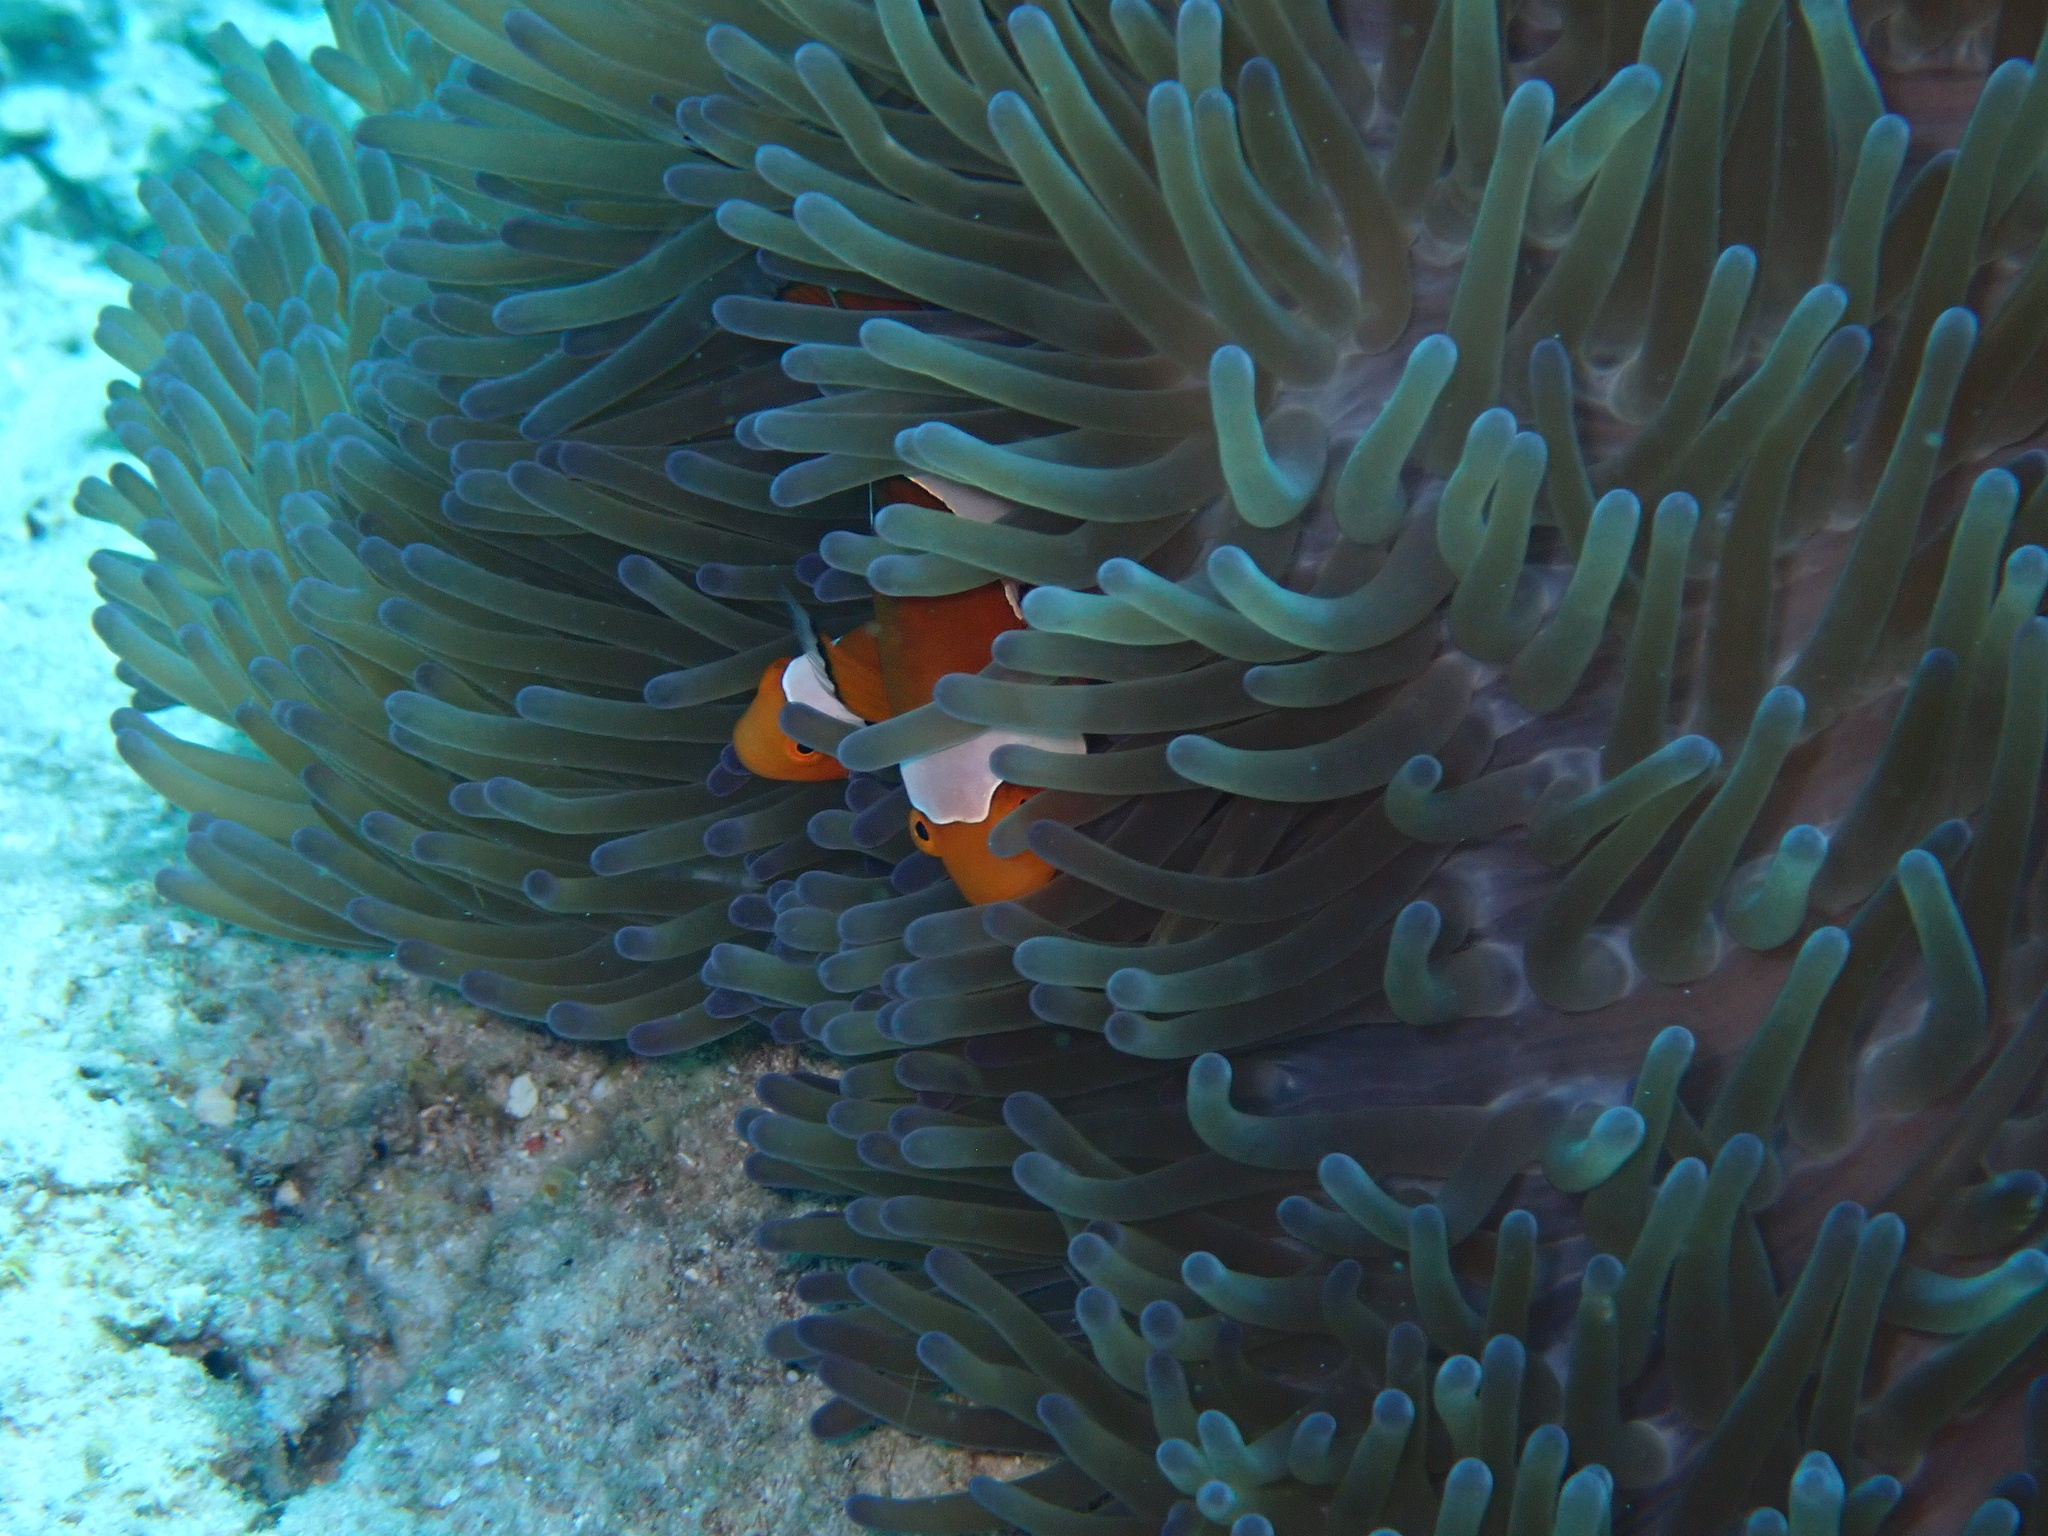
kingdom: Animalia
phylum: Chordata
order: Perciformes
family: Pomacentridae
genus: Amphiprion
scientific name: Amphiprion ocellaris
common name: Clown anemonefish
